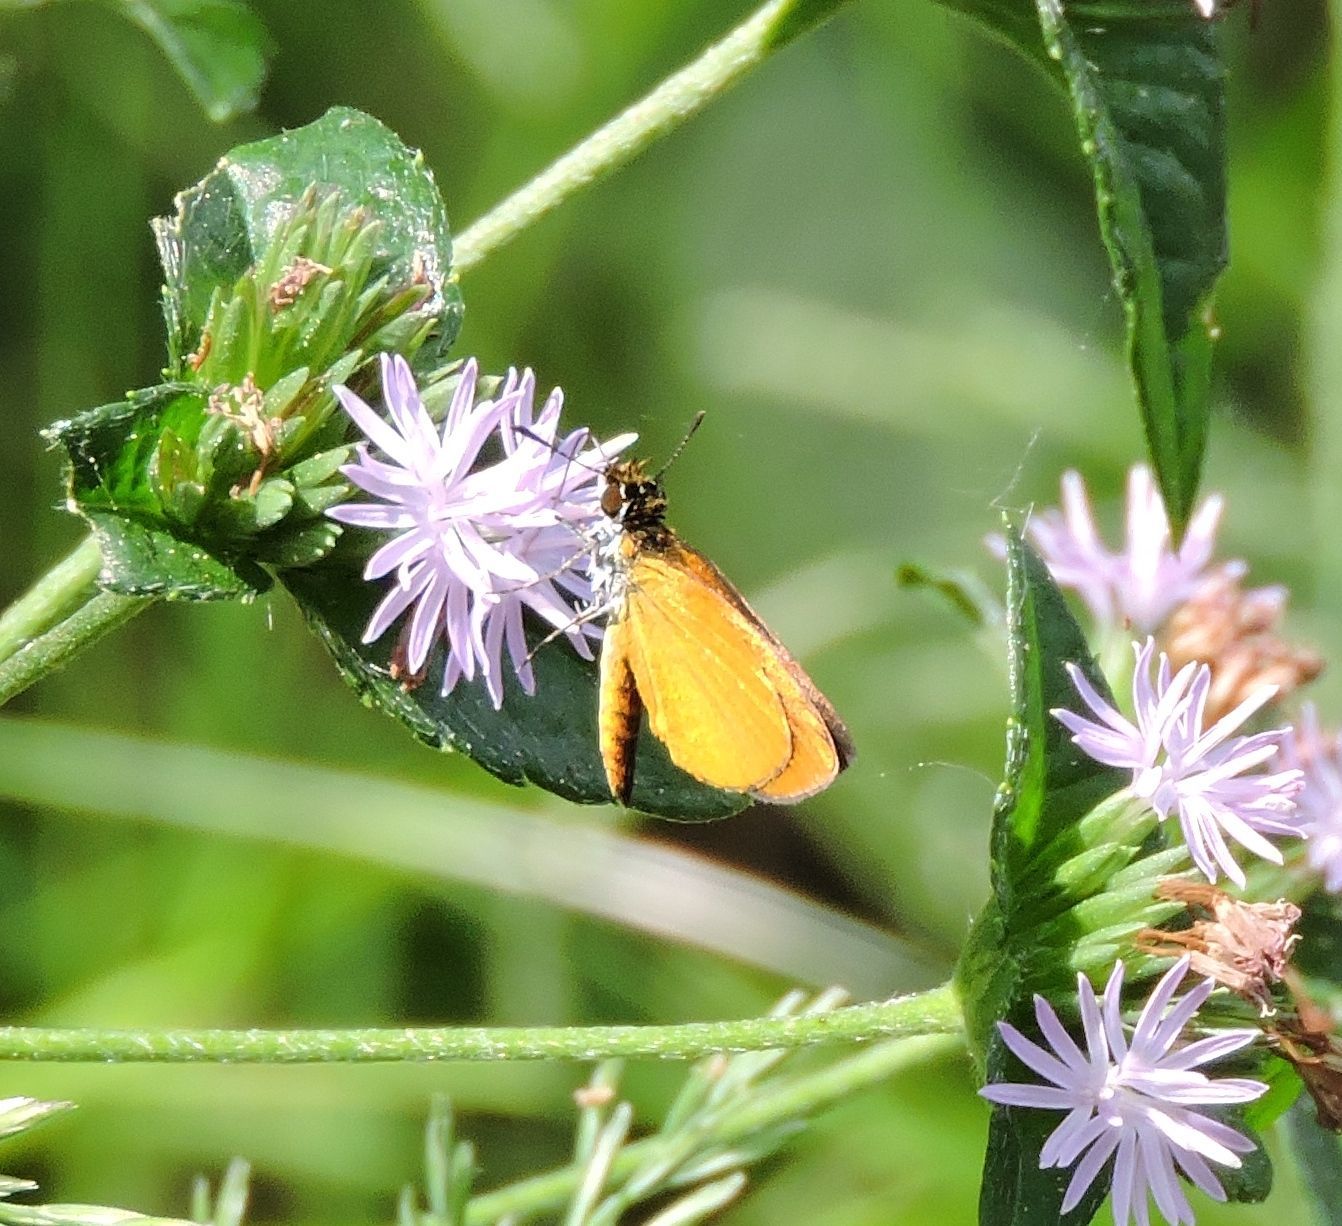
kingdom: Animalia
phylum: Arthropoda
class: Insecta
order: Lepidoptera
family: Hesperiidae
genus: Ancyloxypha
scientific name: Ancyloxypha numitor
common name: Least skipper
